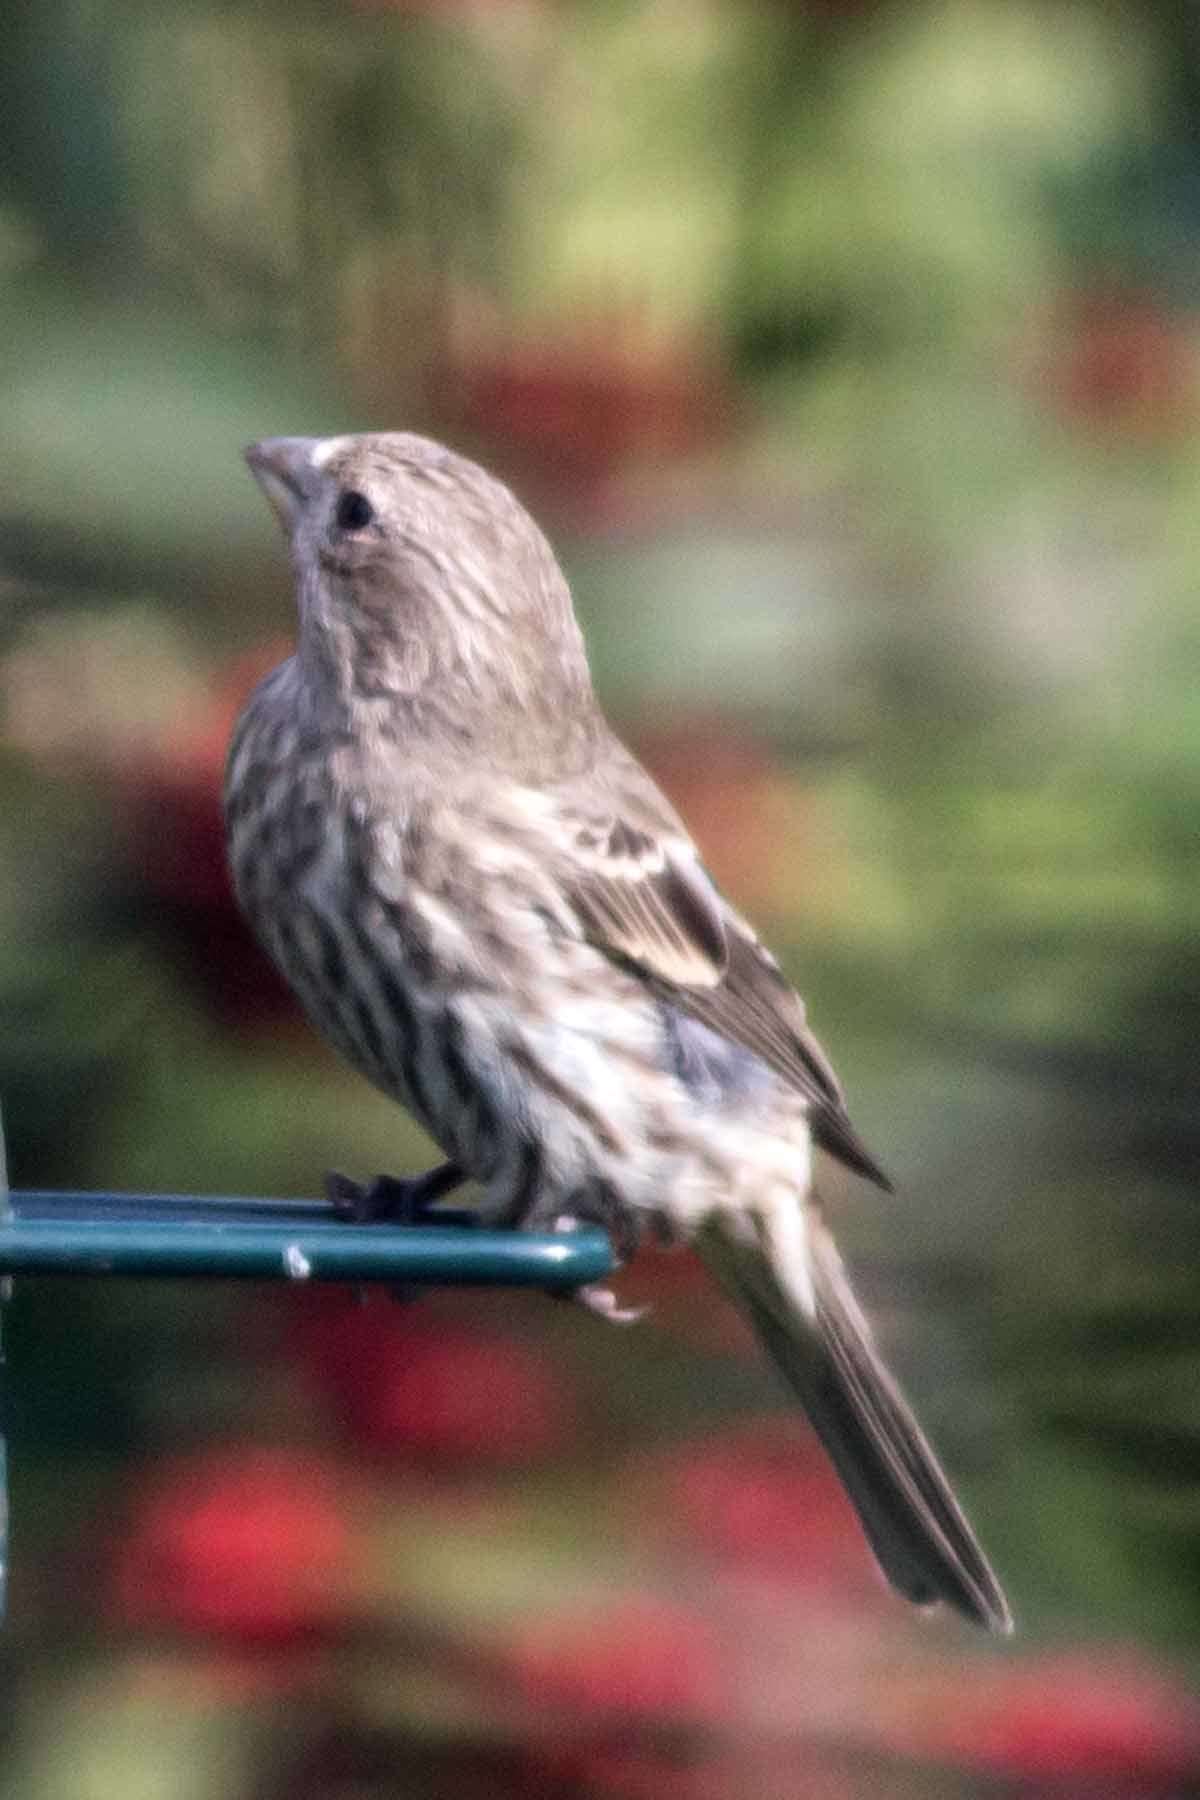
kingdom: Animalia
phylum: Chordata
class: Aves
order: Passeriformes
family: Fringillidae
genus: Haemorhous
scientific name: Haemorhous mexicanus
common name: House finch
